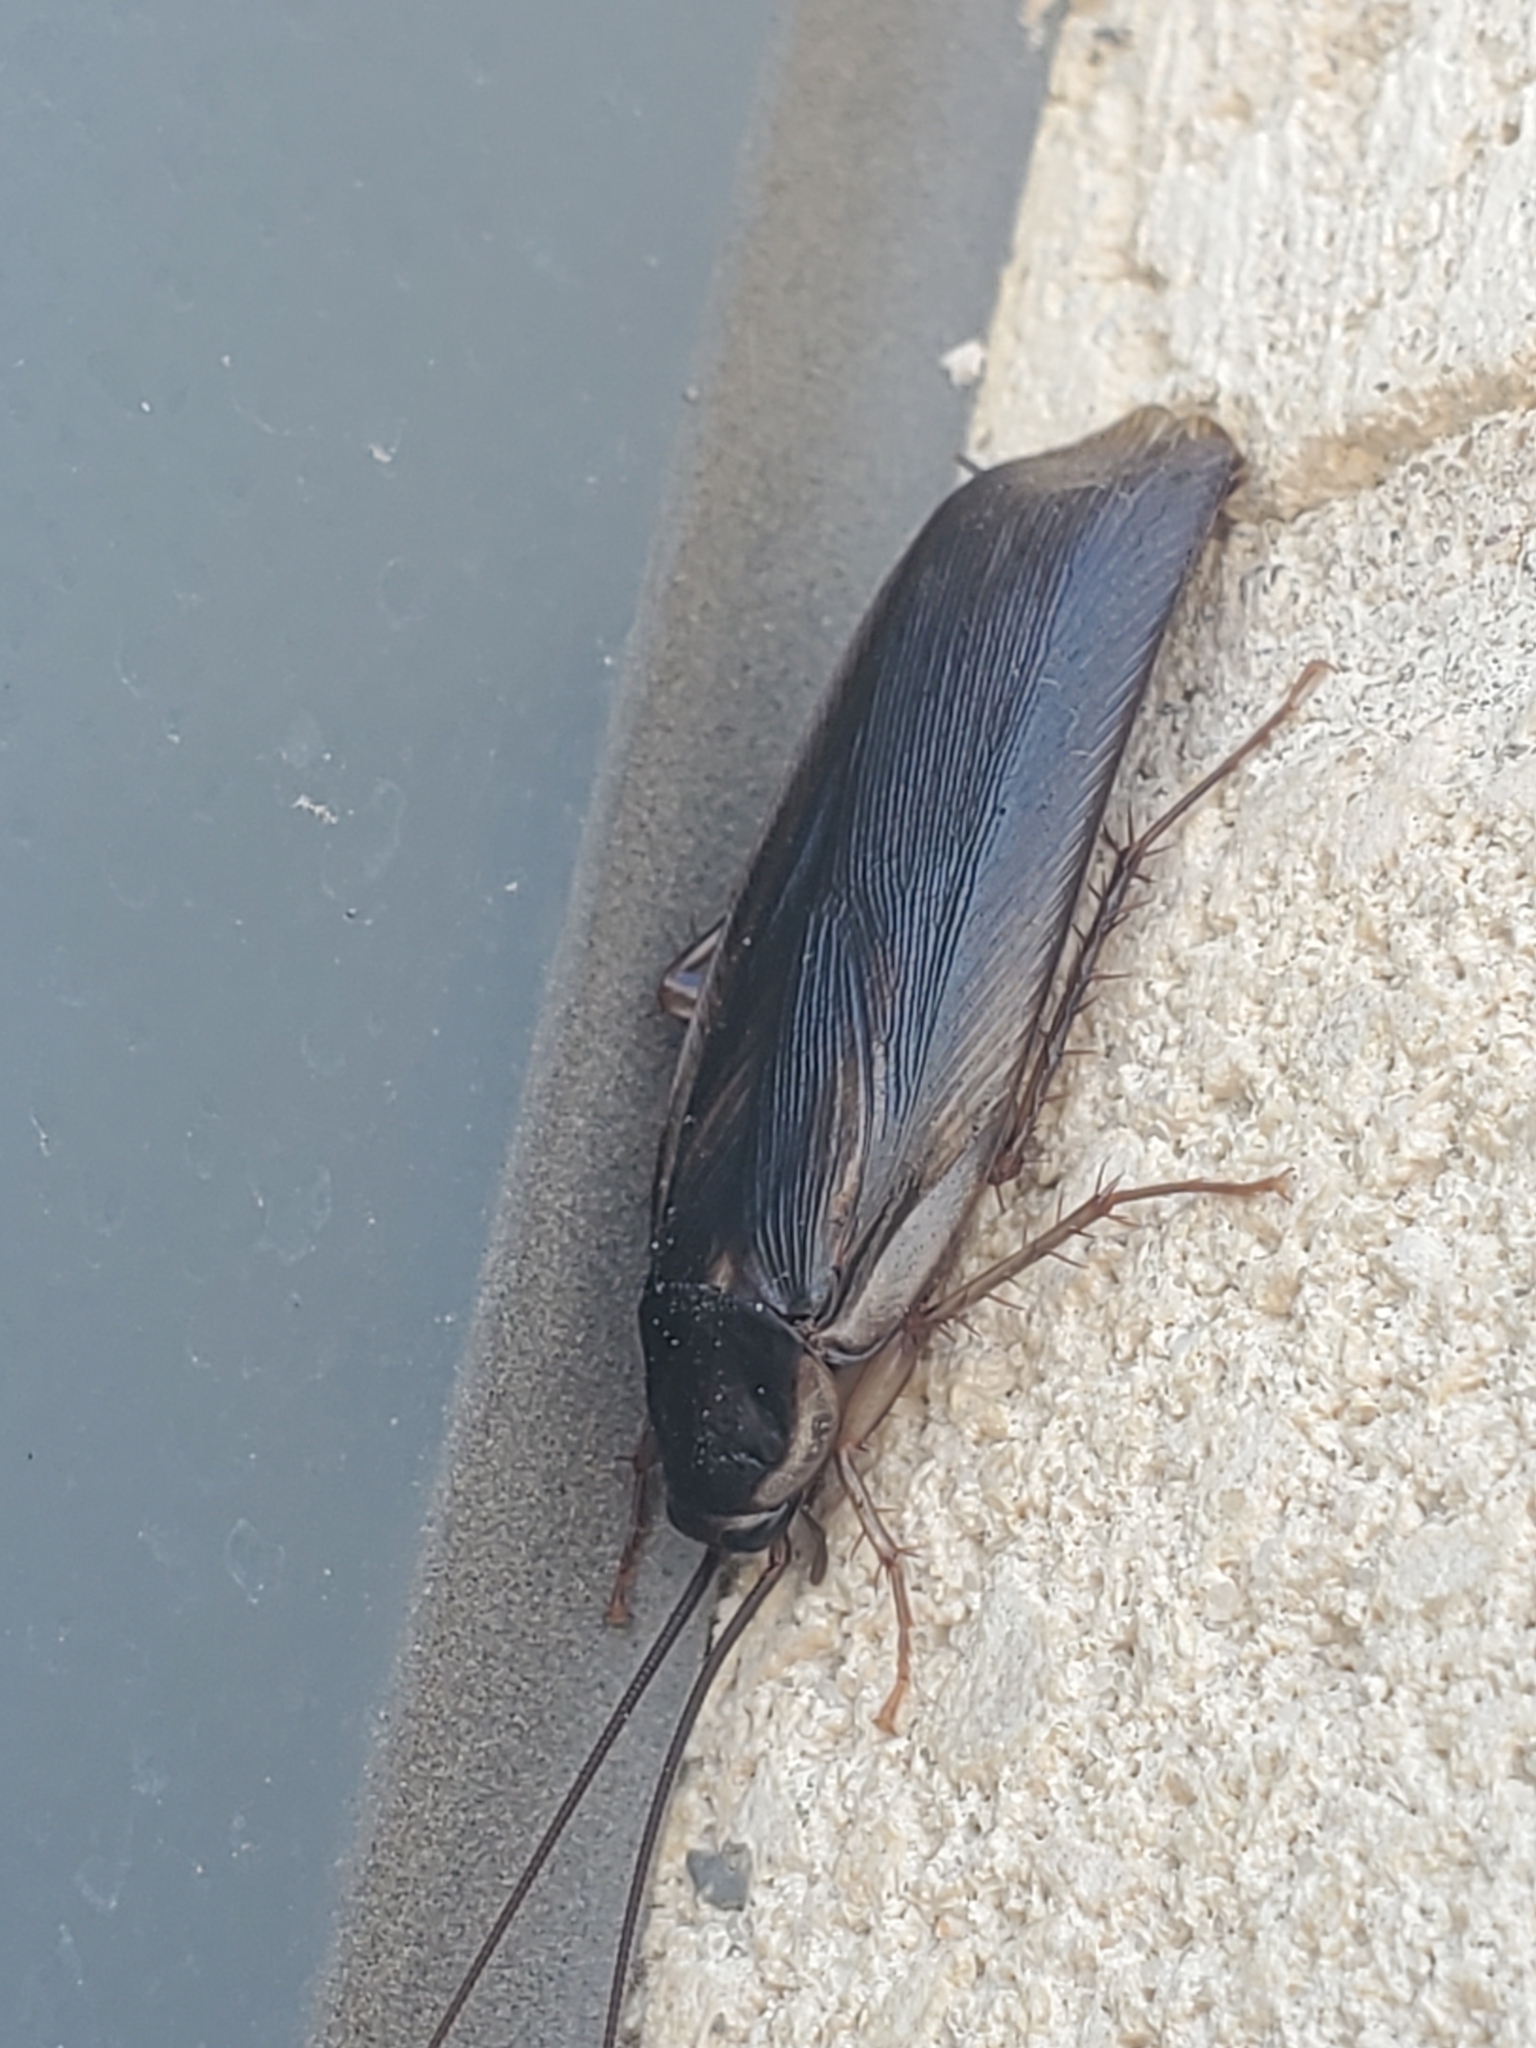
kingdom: Animalia
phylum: Arthropoda
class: Insecta
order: Blattodea
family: Ectobiidae
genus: Parcoblatta
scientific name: Parcoblatta pennsylvanica
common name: Pennsylvanian wood cockroach
